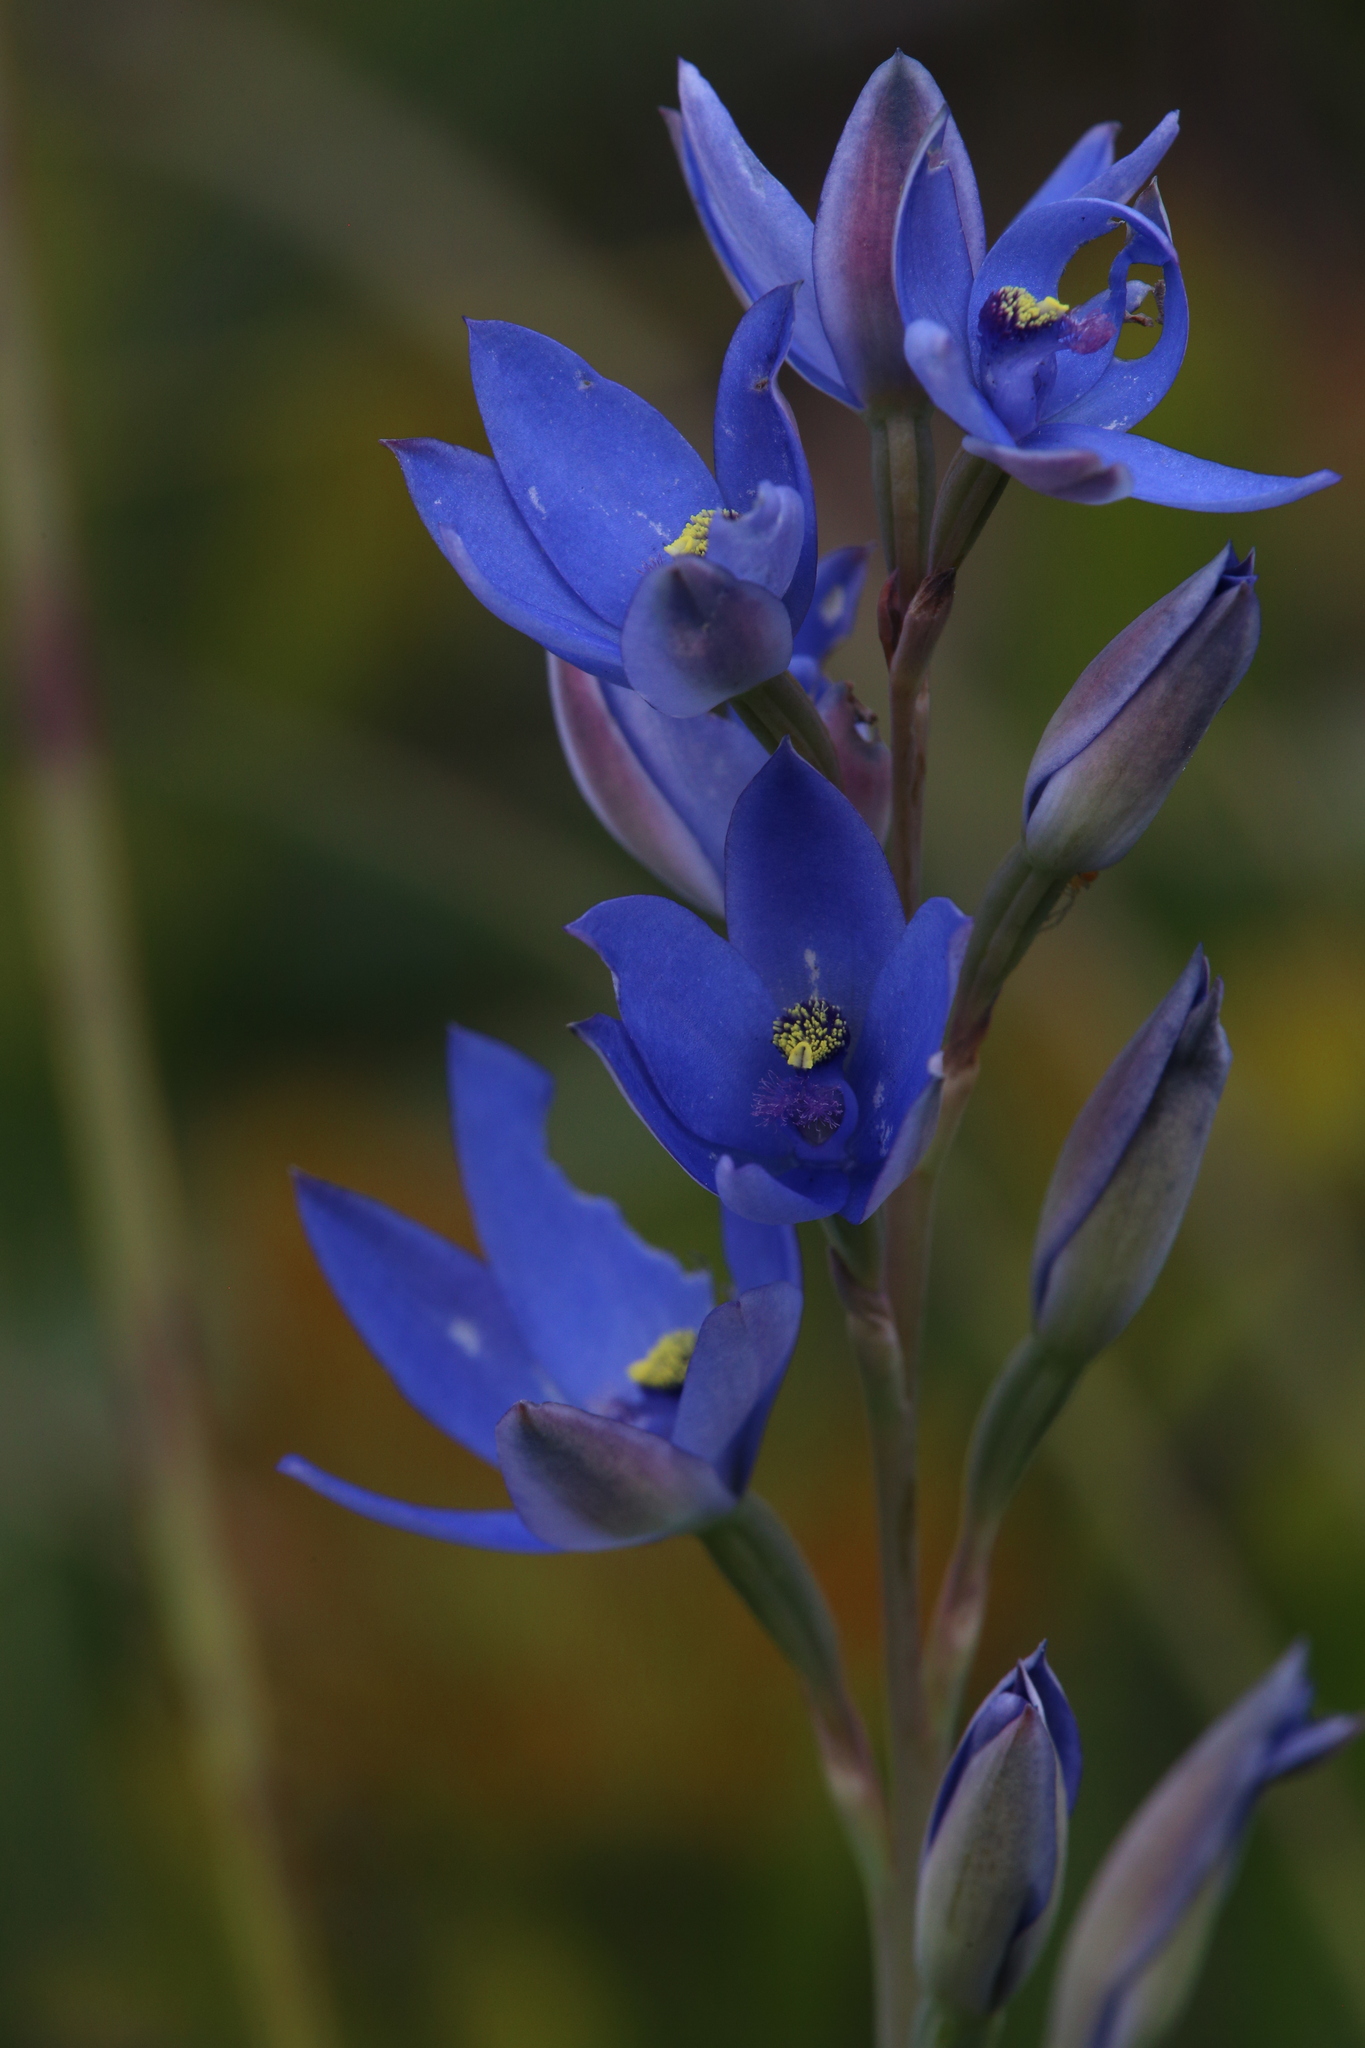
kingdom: Plantae
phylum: Tracheophyta
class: Liliopsida
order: Asparagales
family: Orchidaceae
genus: Thelymitra
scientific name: Thelymitra crinita
